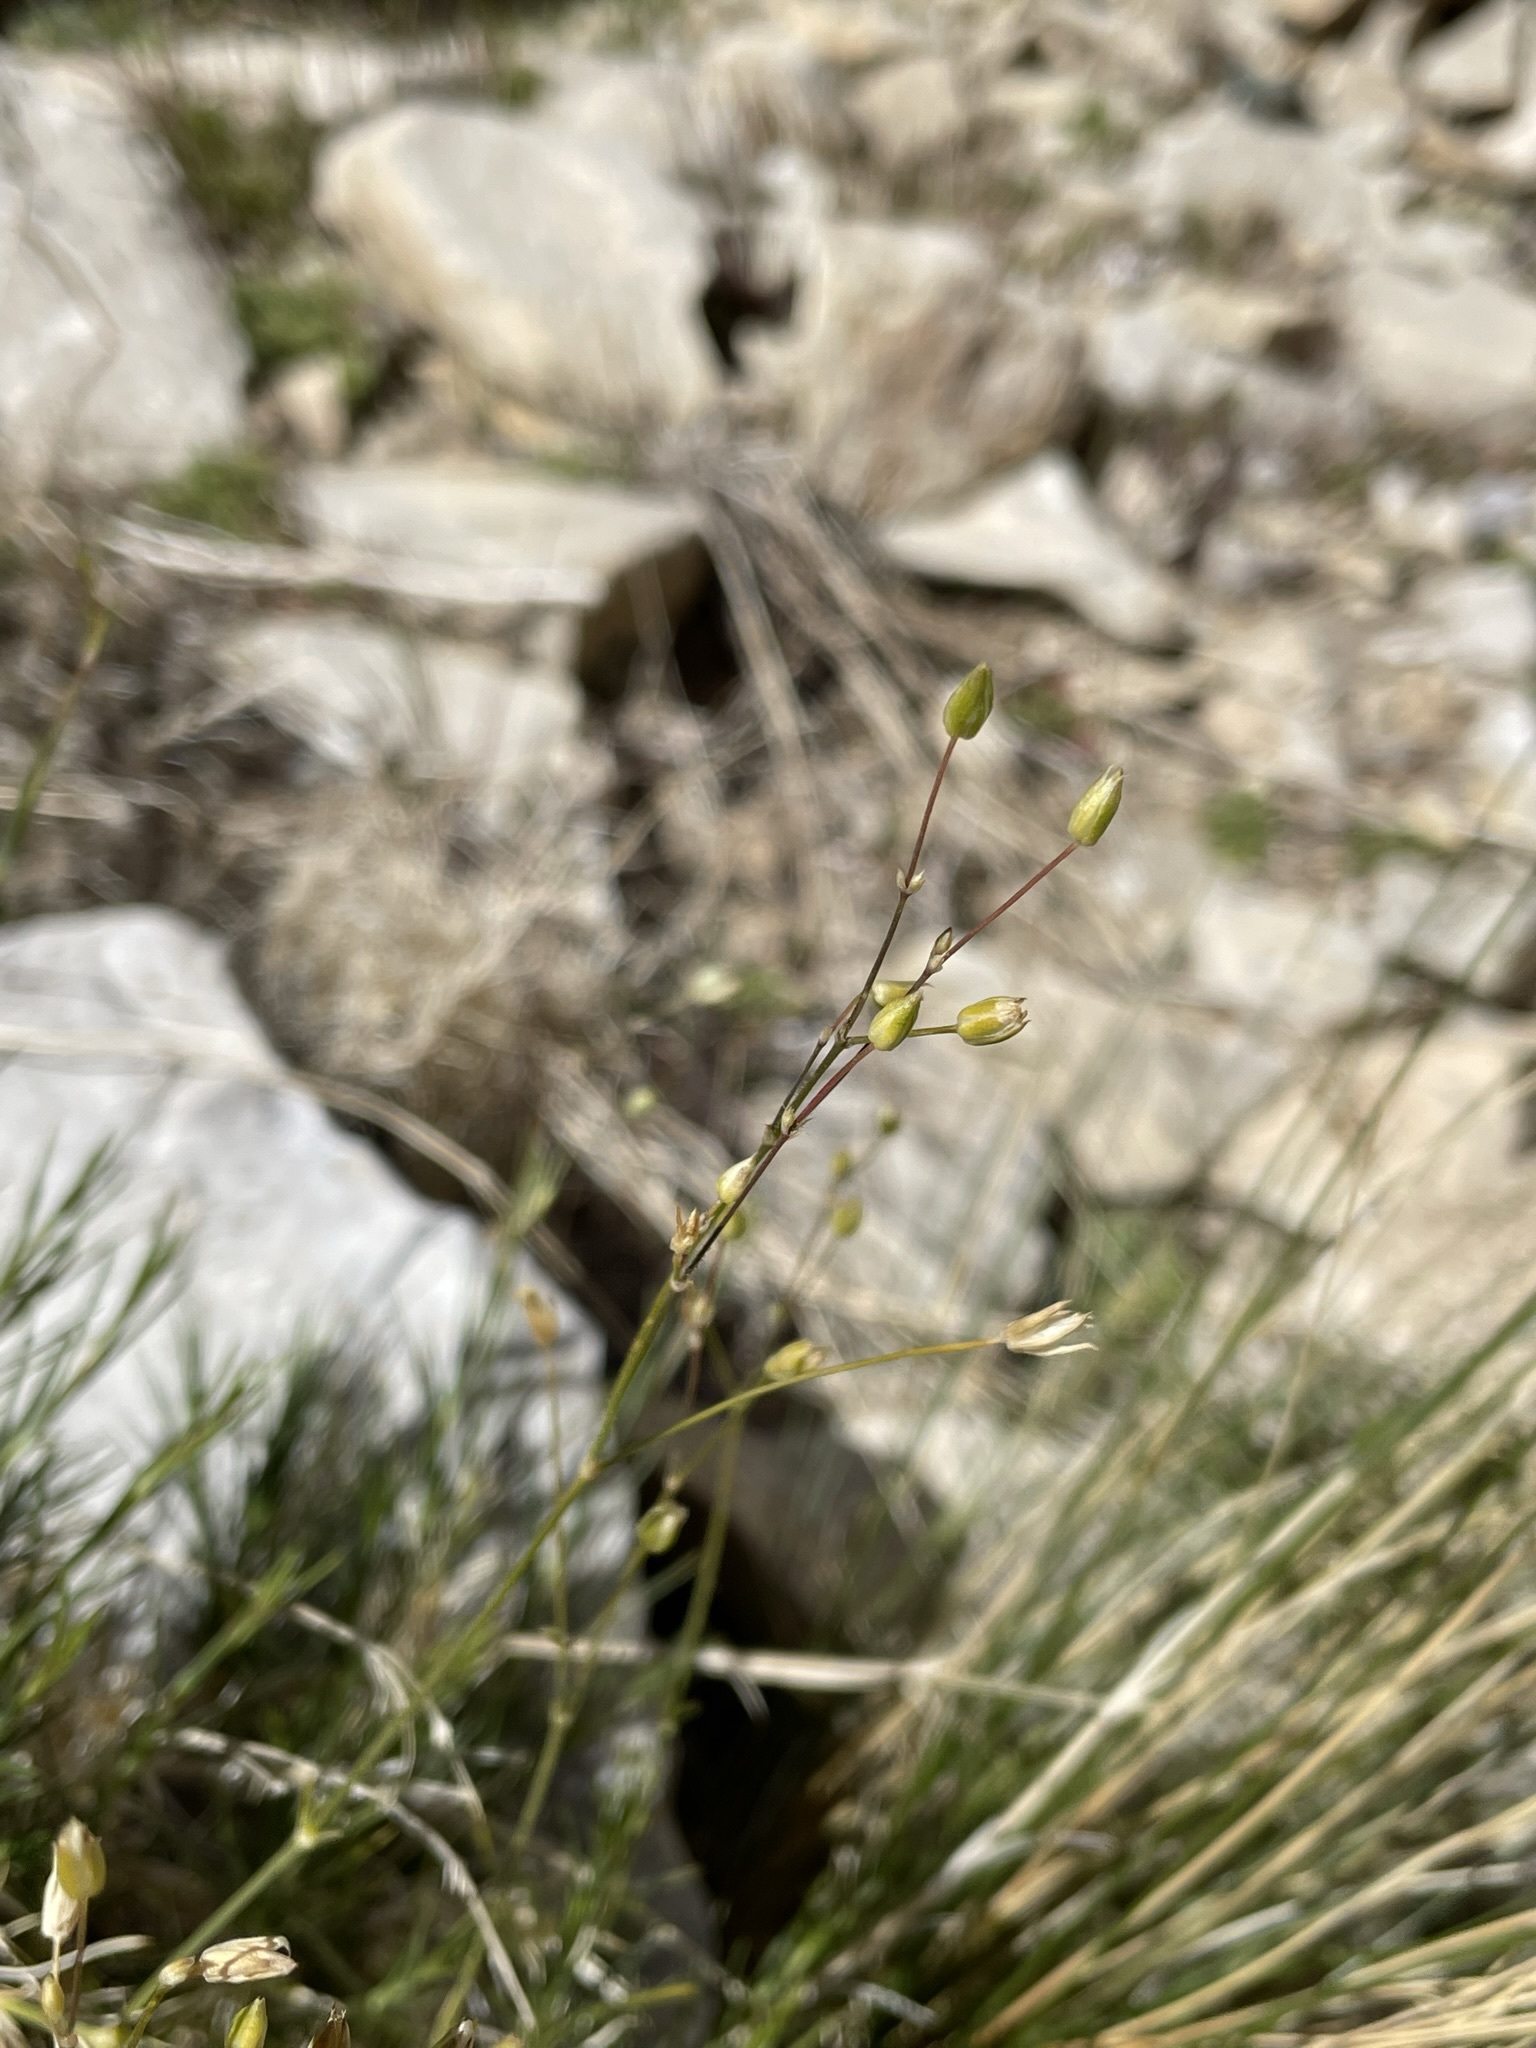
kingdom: Plantae
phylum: Tracheophyta
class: Magnoliopsida
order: Caryophyllales
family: Caryophyllaceae
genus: Eremogone
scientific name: Eremogone macradenia
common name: Mohave sandwort
